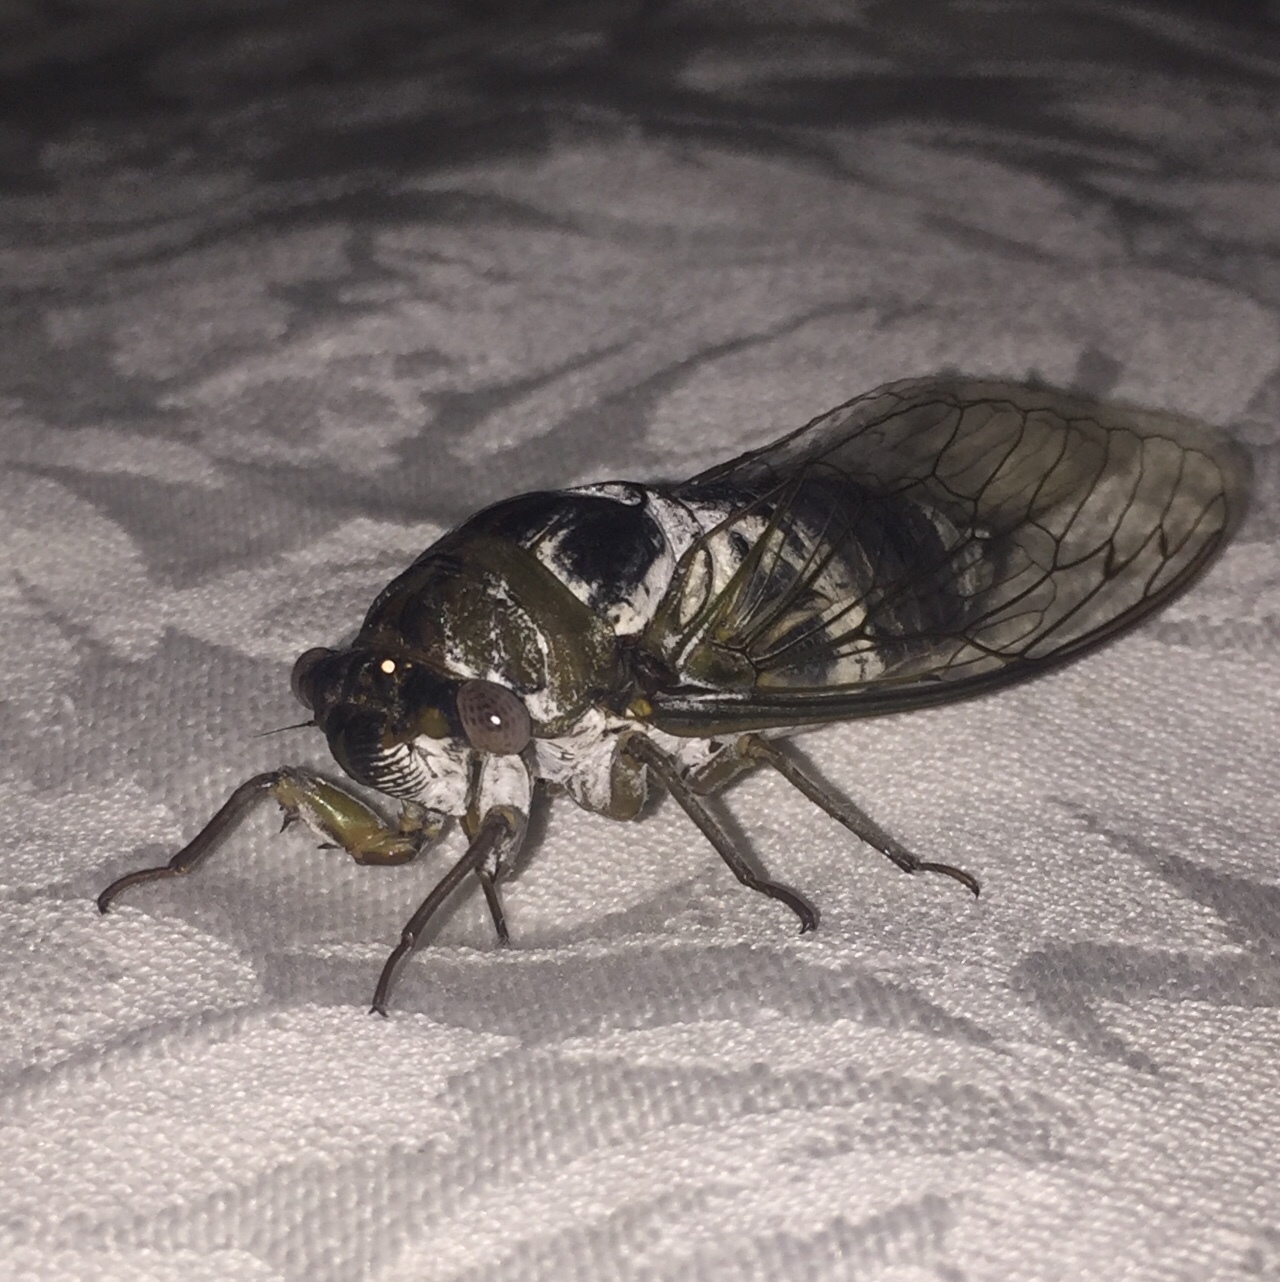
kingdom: Animalia
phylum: Arthropoda
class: Insecta
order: Hemiptera
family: Cicadidae
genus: Diceroprocta
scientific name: Diceroprocta grossa
